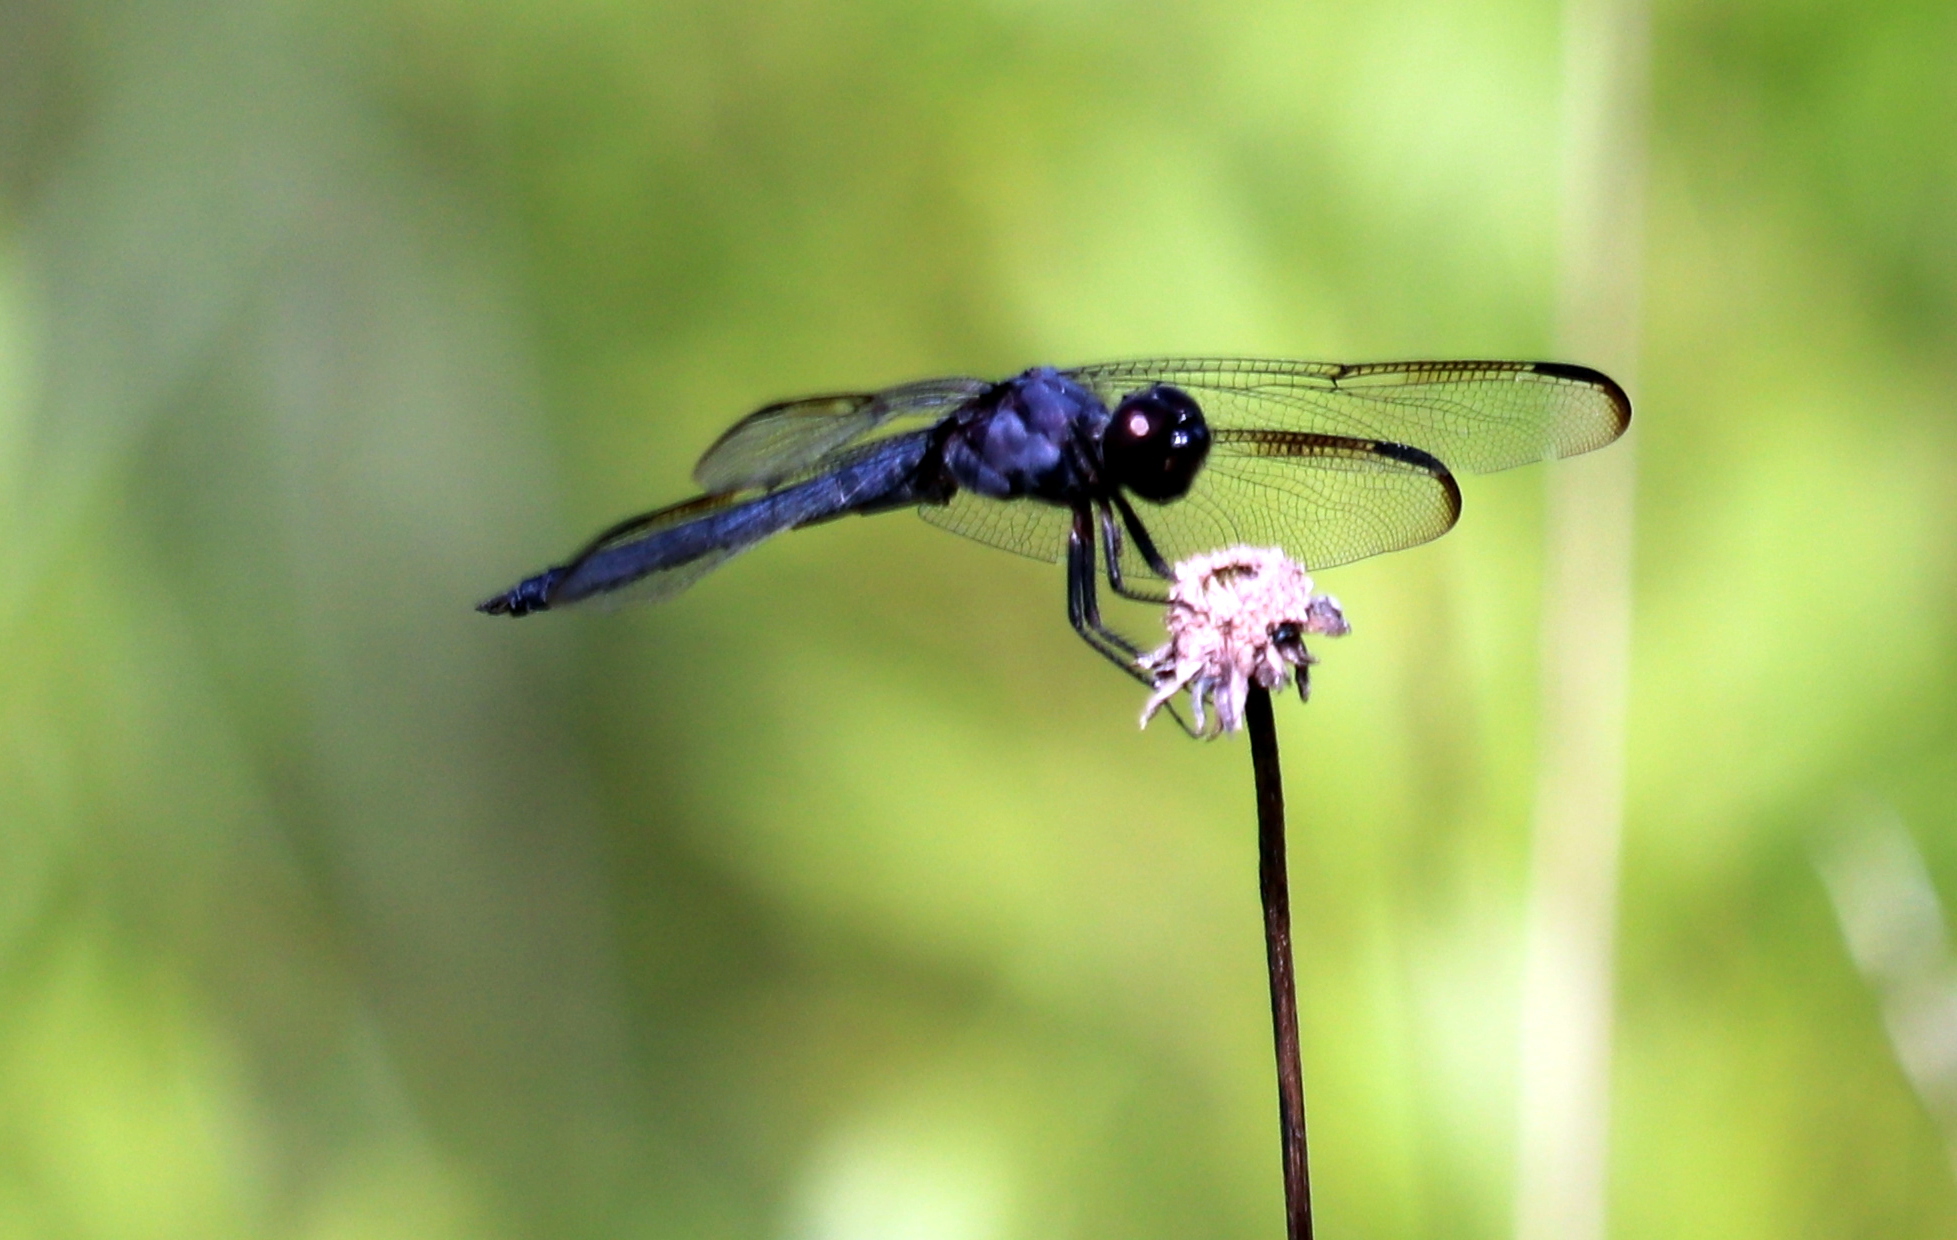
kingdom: Animalia
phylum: Arthropoda
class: Insecta
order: Odonata
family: Libellulidae
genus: Libellula
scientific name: Libellula incesta
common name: Slaty skimmer
